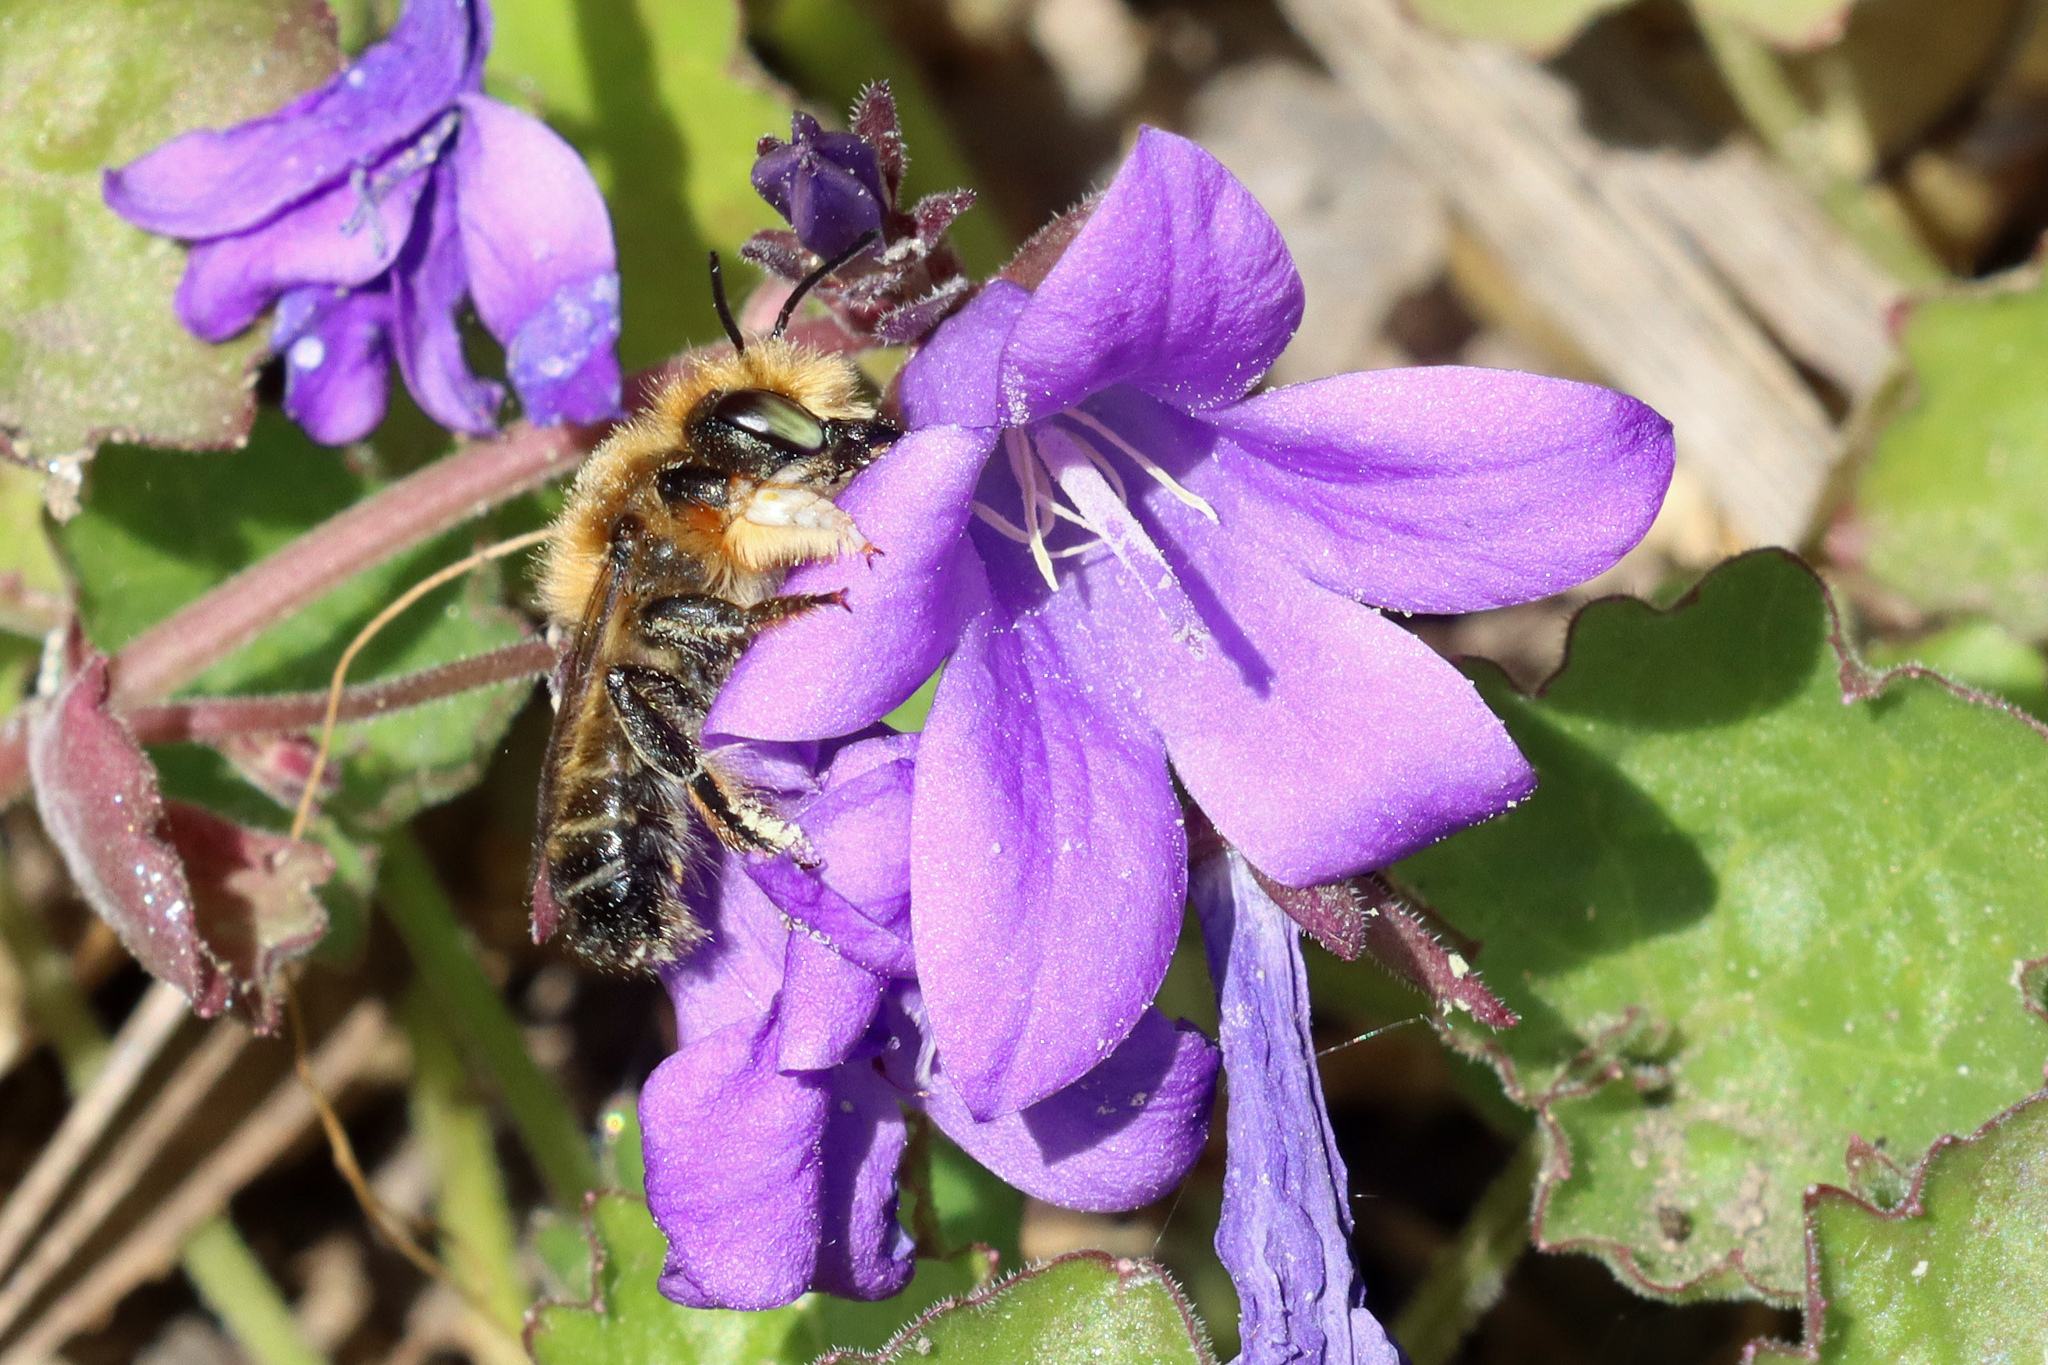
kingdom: Animalia
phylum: Arthropoda
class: Insecta
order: Hymenoptera
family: Megachilidae
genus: Megachile
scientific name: Megachile willughbiella
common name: Willughby's leafcutter bee
